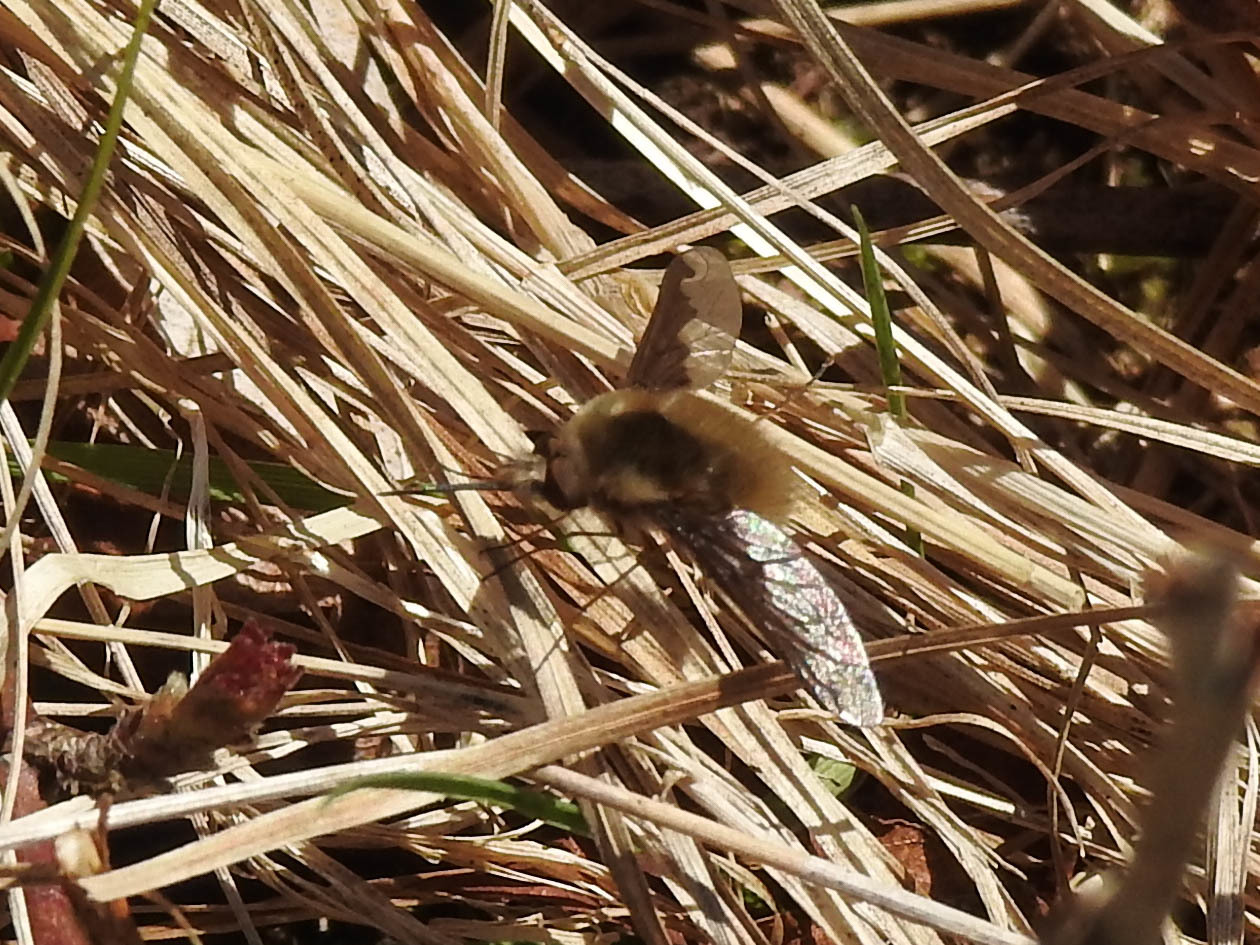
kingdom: Animalia
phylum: Arthropoda
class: Insecta
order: Diptera
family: Bombyliidae
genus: Bombylius
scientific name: Bombylius major
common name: Bee fly
